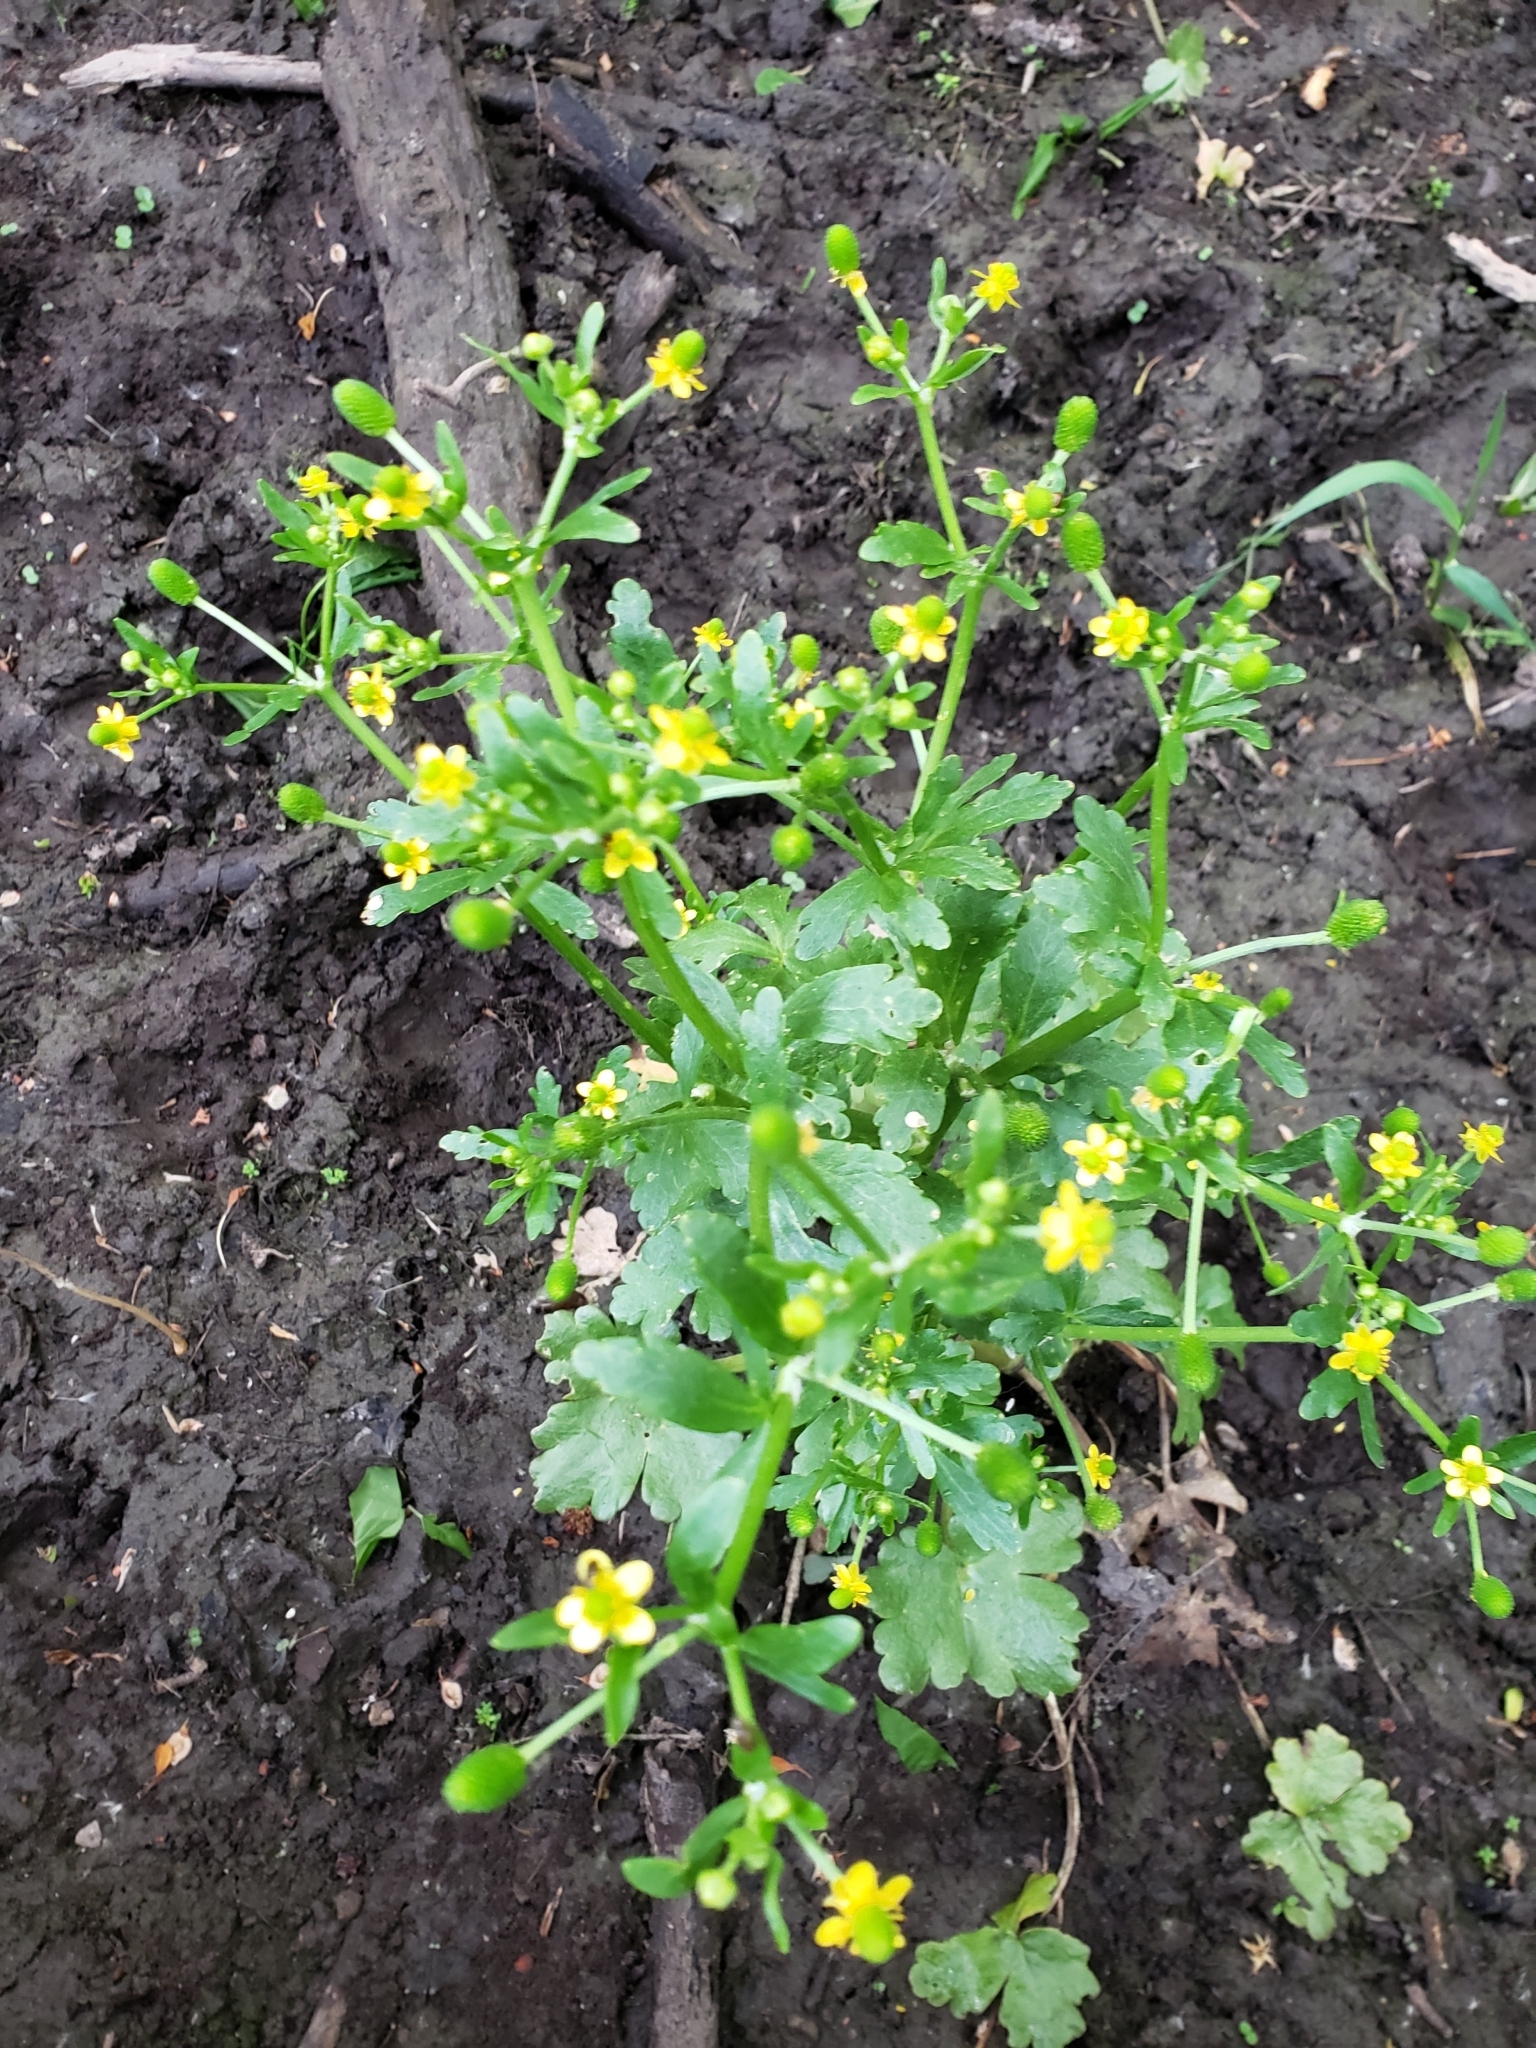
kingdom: Plantae
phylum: Tracheophyta
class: Magnoliopsida
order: Ranunculales
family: Ranunculaceae
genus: Ranunculus
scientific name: Ranunculus sceleratus
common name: Celery-leaved buttercup
